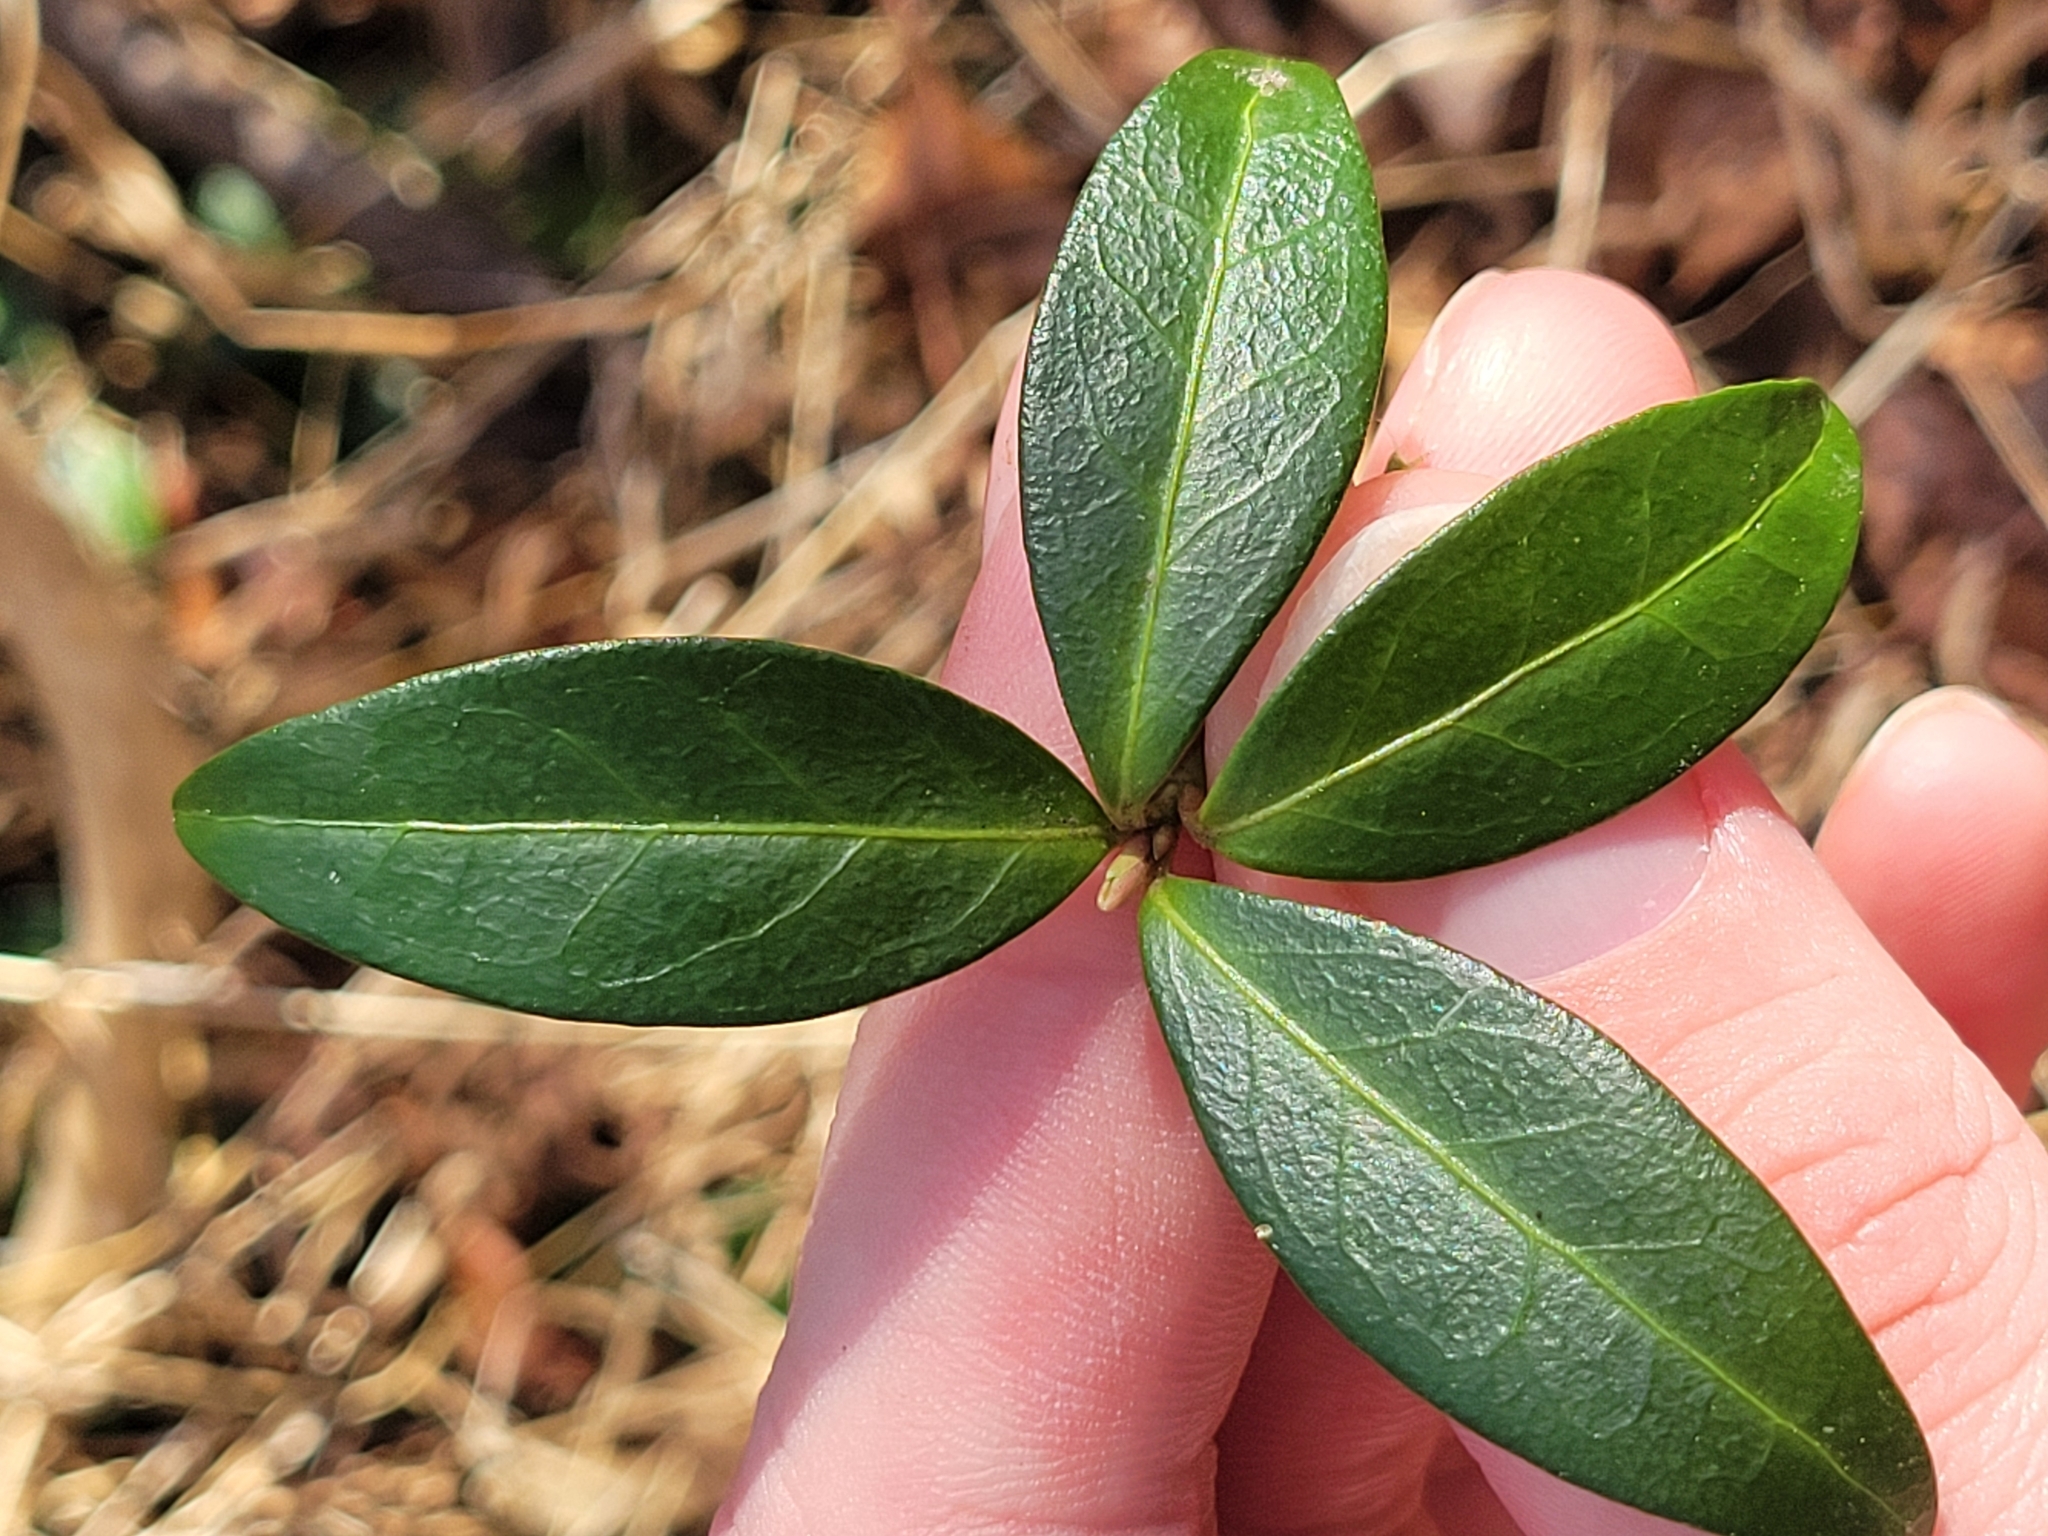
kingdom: Plantae
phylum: Tracheophyta
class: Magnoliopsida
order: Gentianales
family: Apocynaceae
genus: Vinca
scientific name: Vinca minor
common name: Lesser periwinkle
